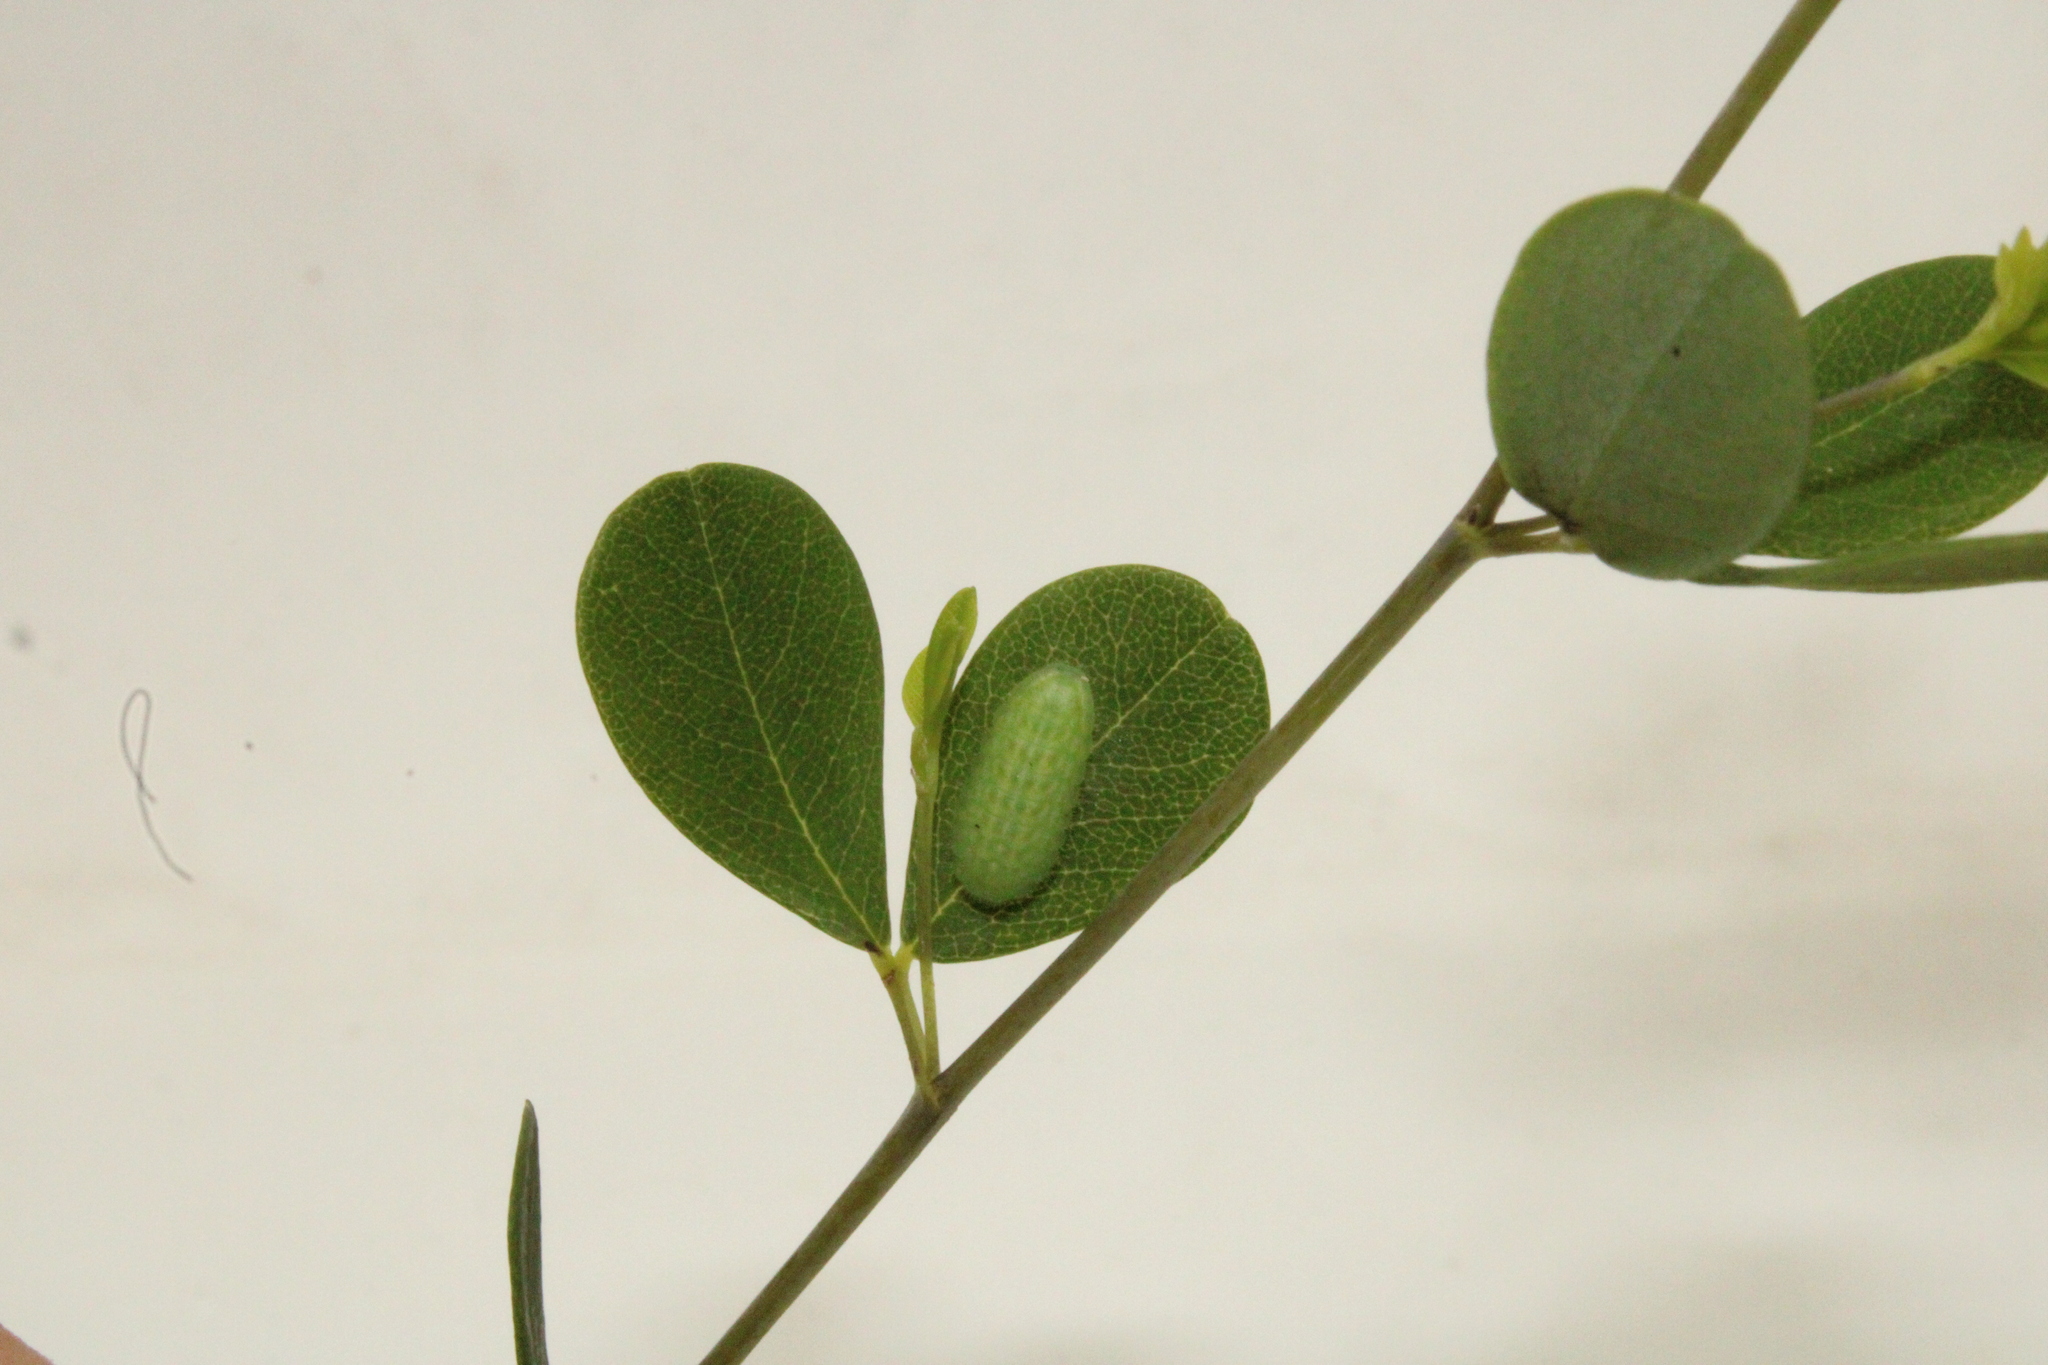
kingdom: Animalia
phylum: Arthropoda
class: Insecta
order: Lepidoptera
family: Lycaenidae
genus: Thecla
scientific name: Thecla irus
